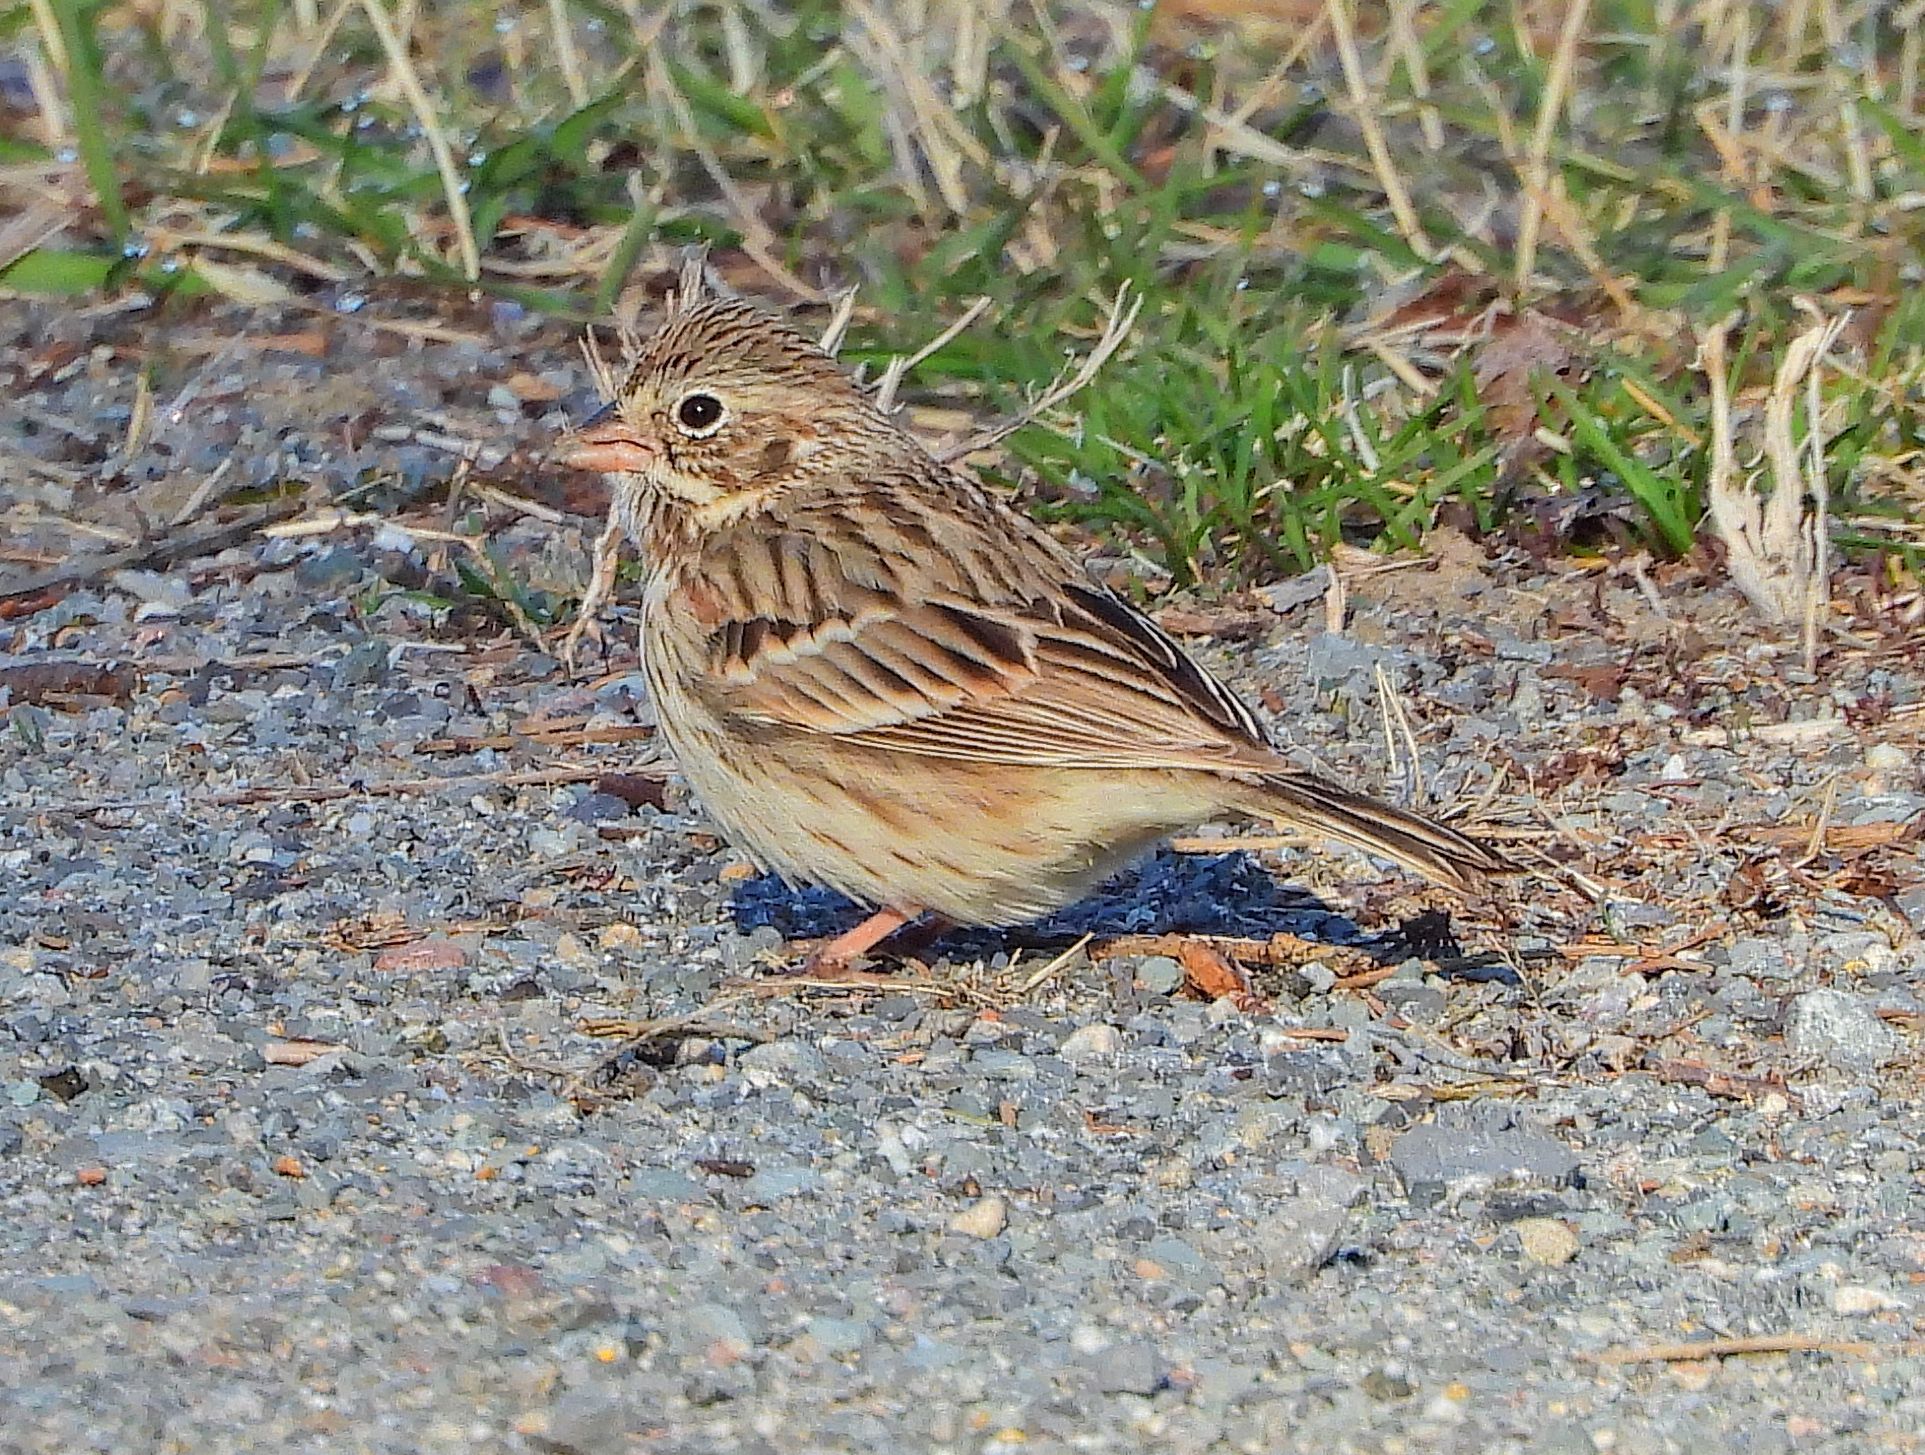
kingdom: Animalia
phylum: Chordata
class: Aves
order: Passeriformes
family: Passerellidae
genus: Pooecetes
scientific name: Pooecetes gramineus
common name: Vesper sparrow
